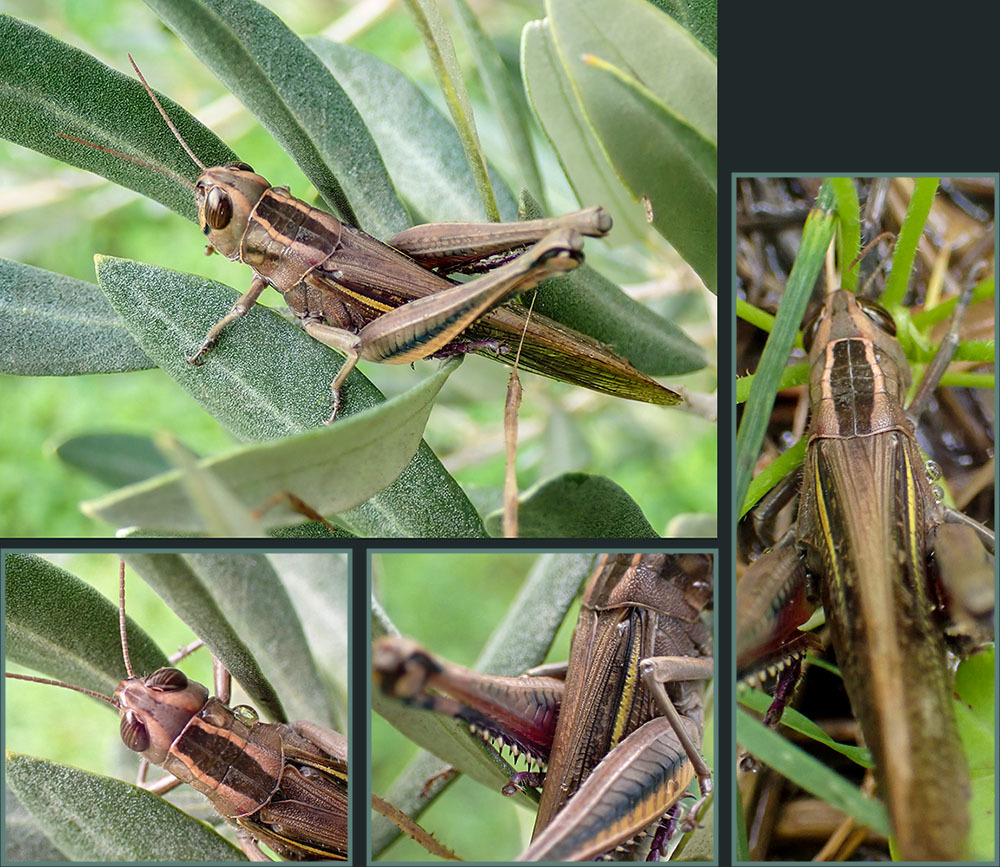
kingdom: Animalia
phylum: Arthropoda
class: Insecta
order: Orthoptera
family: Acrididae
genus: Eyprepocnemis
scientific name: Eyprepocnemis plorans
